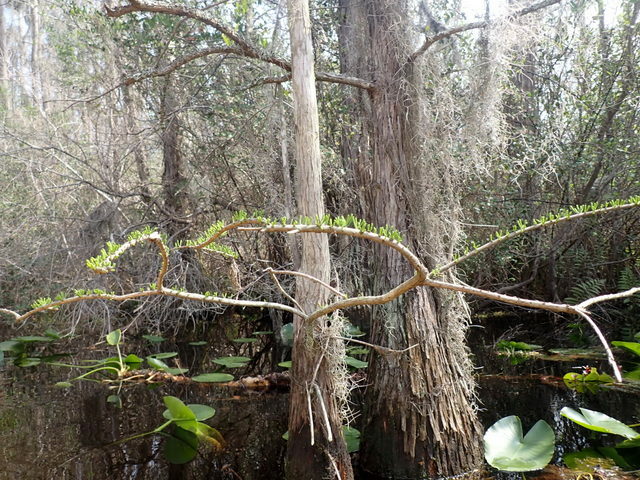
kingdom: Plantae
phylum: Tracheophyta
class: Pinopsida
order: Pinales
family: Cupressaceae
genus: Taxodium
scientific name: Taxodium distichum
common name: Bald cypress
